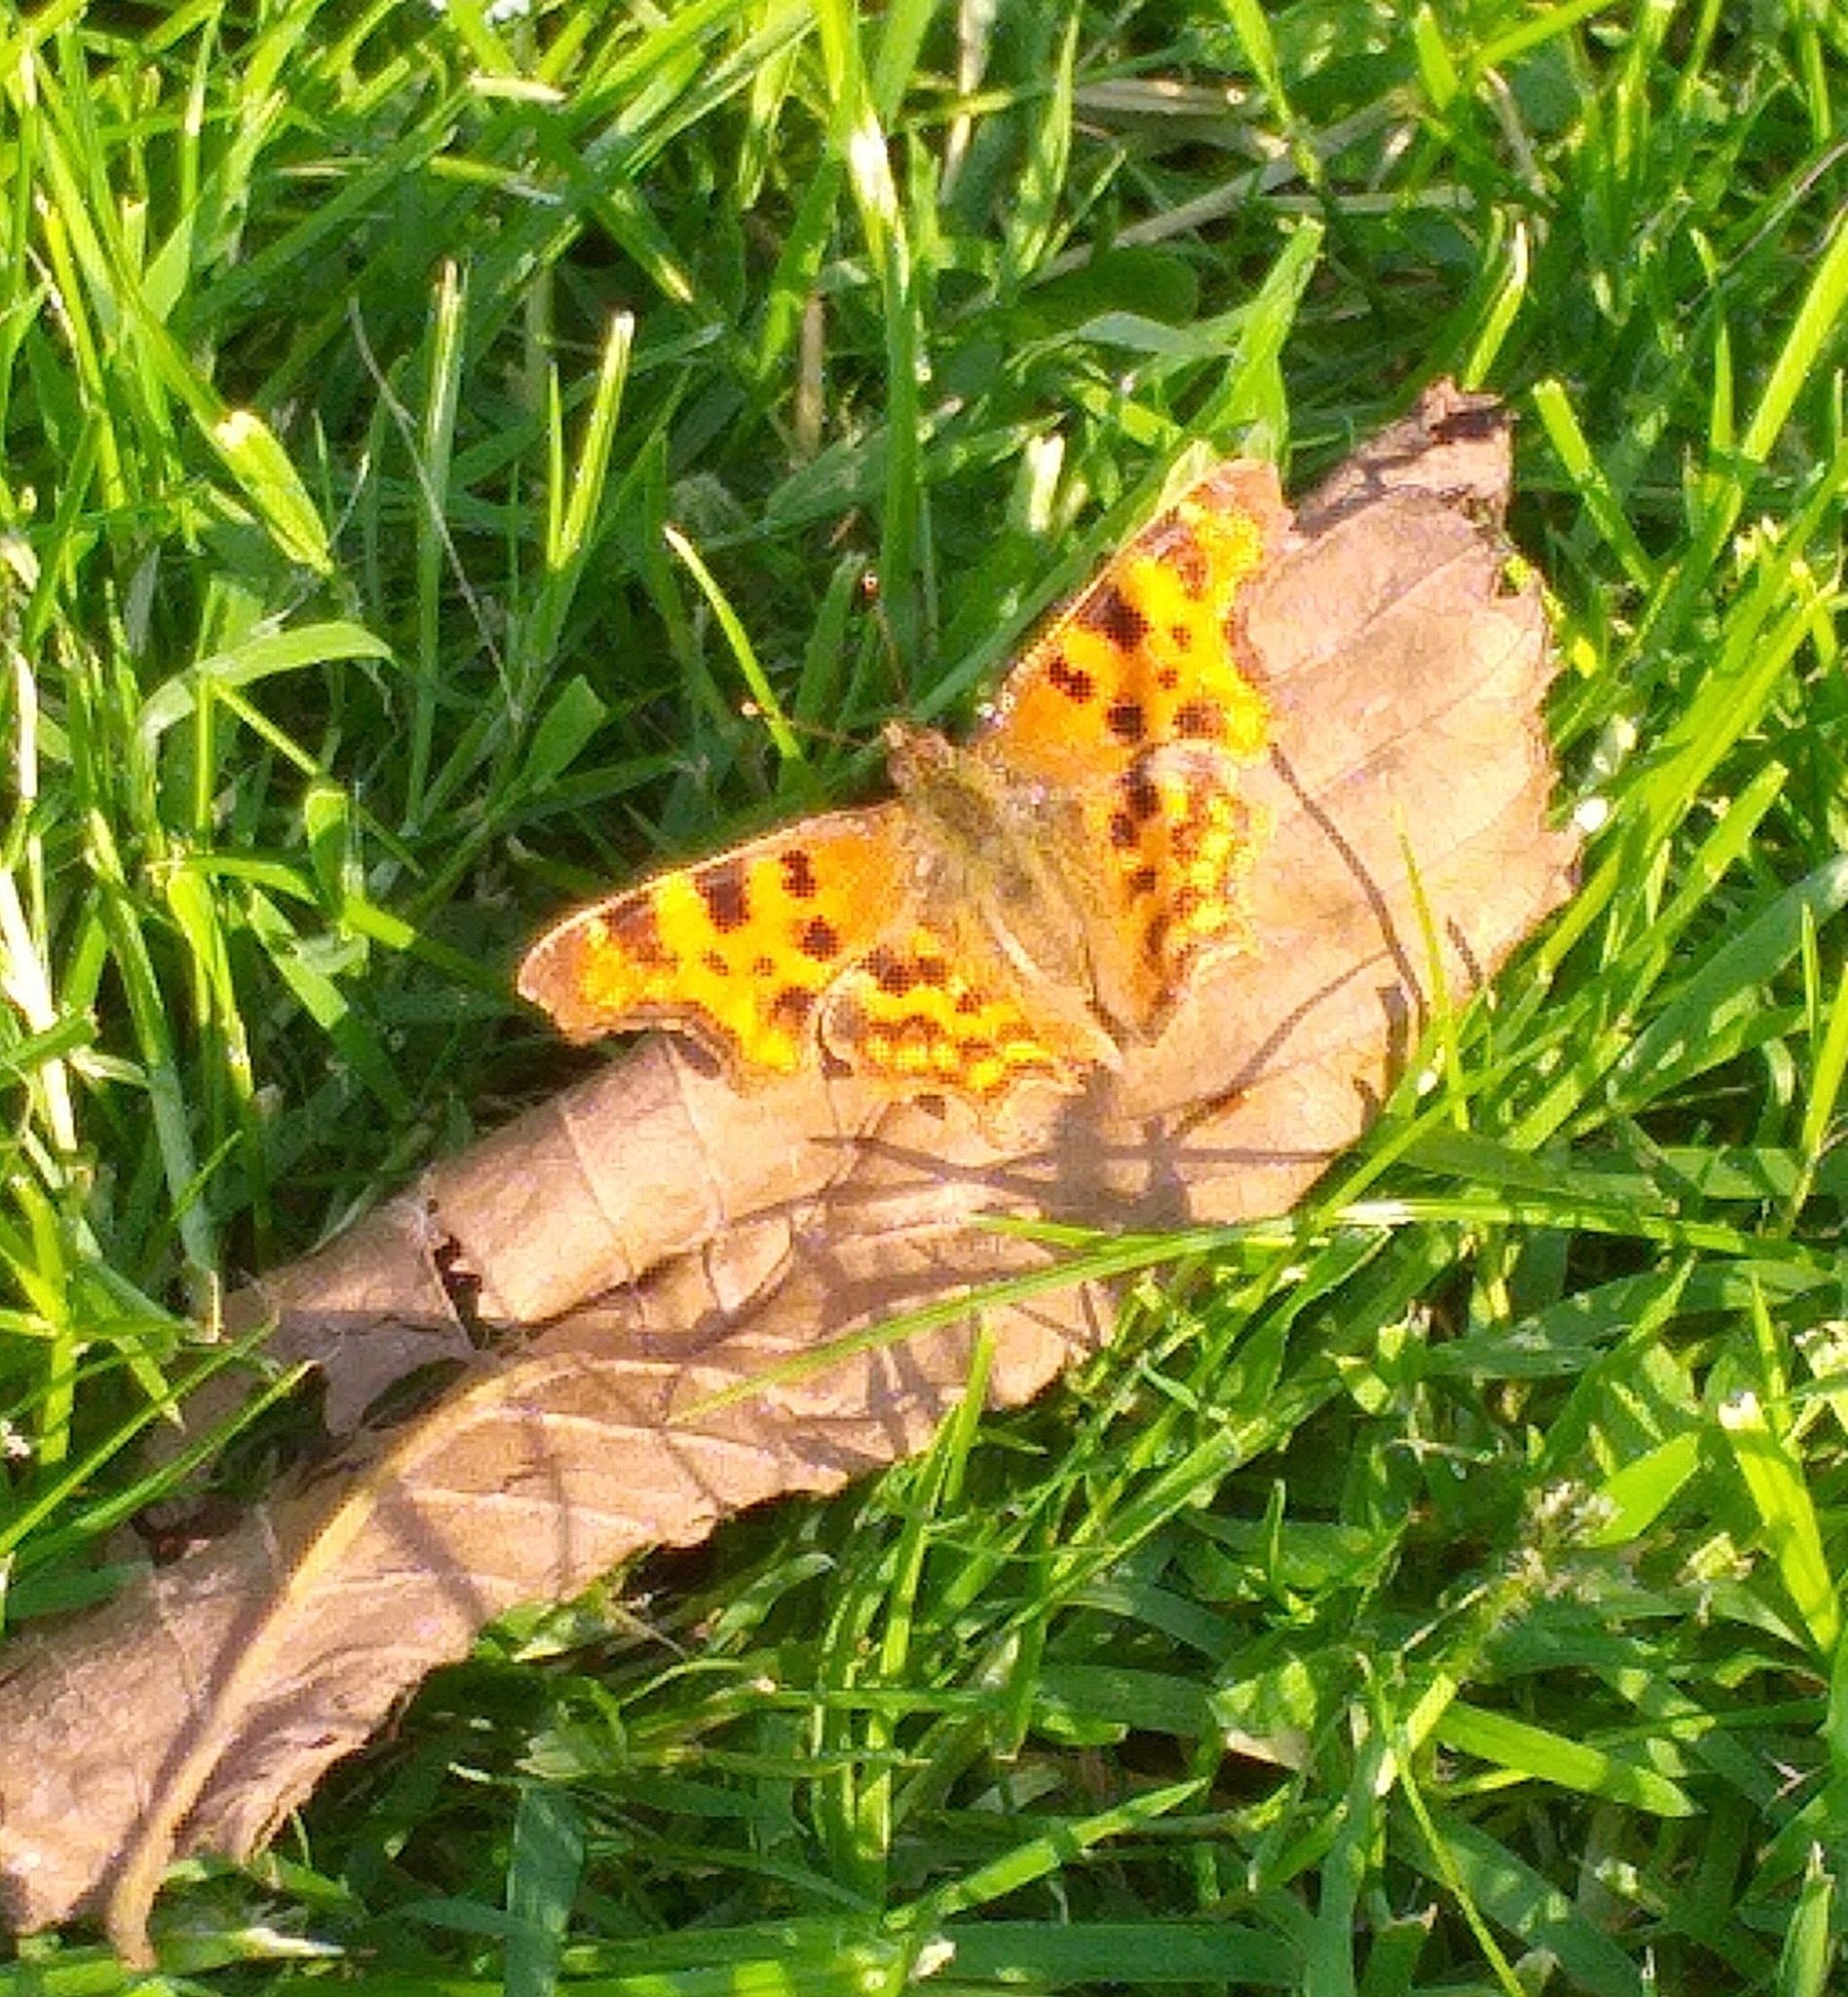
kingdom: Animalia
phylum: Arthropoda
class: Insecta
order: Lepidoptera
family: Nymphalidae
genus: Polygonia
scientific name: Polygonia c-album
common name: Comma
